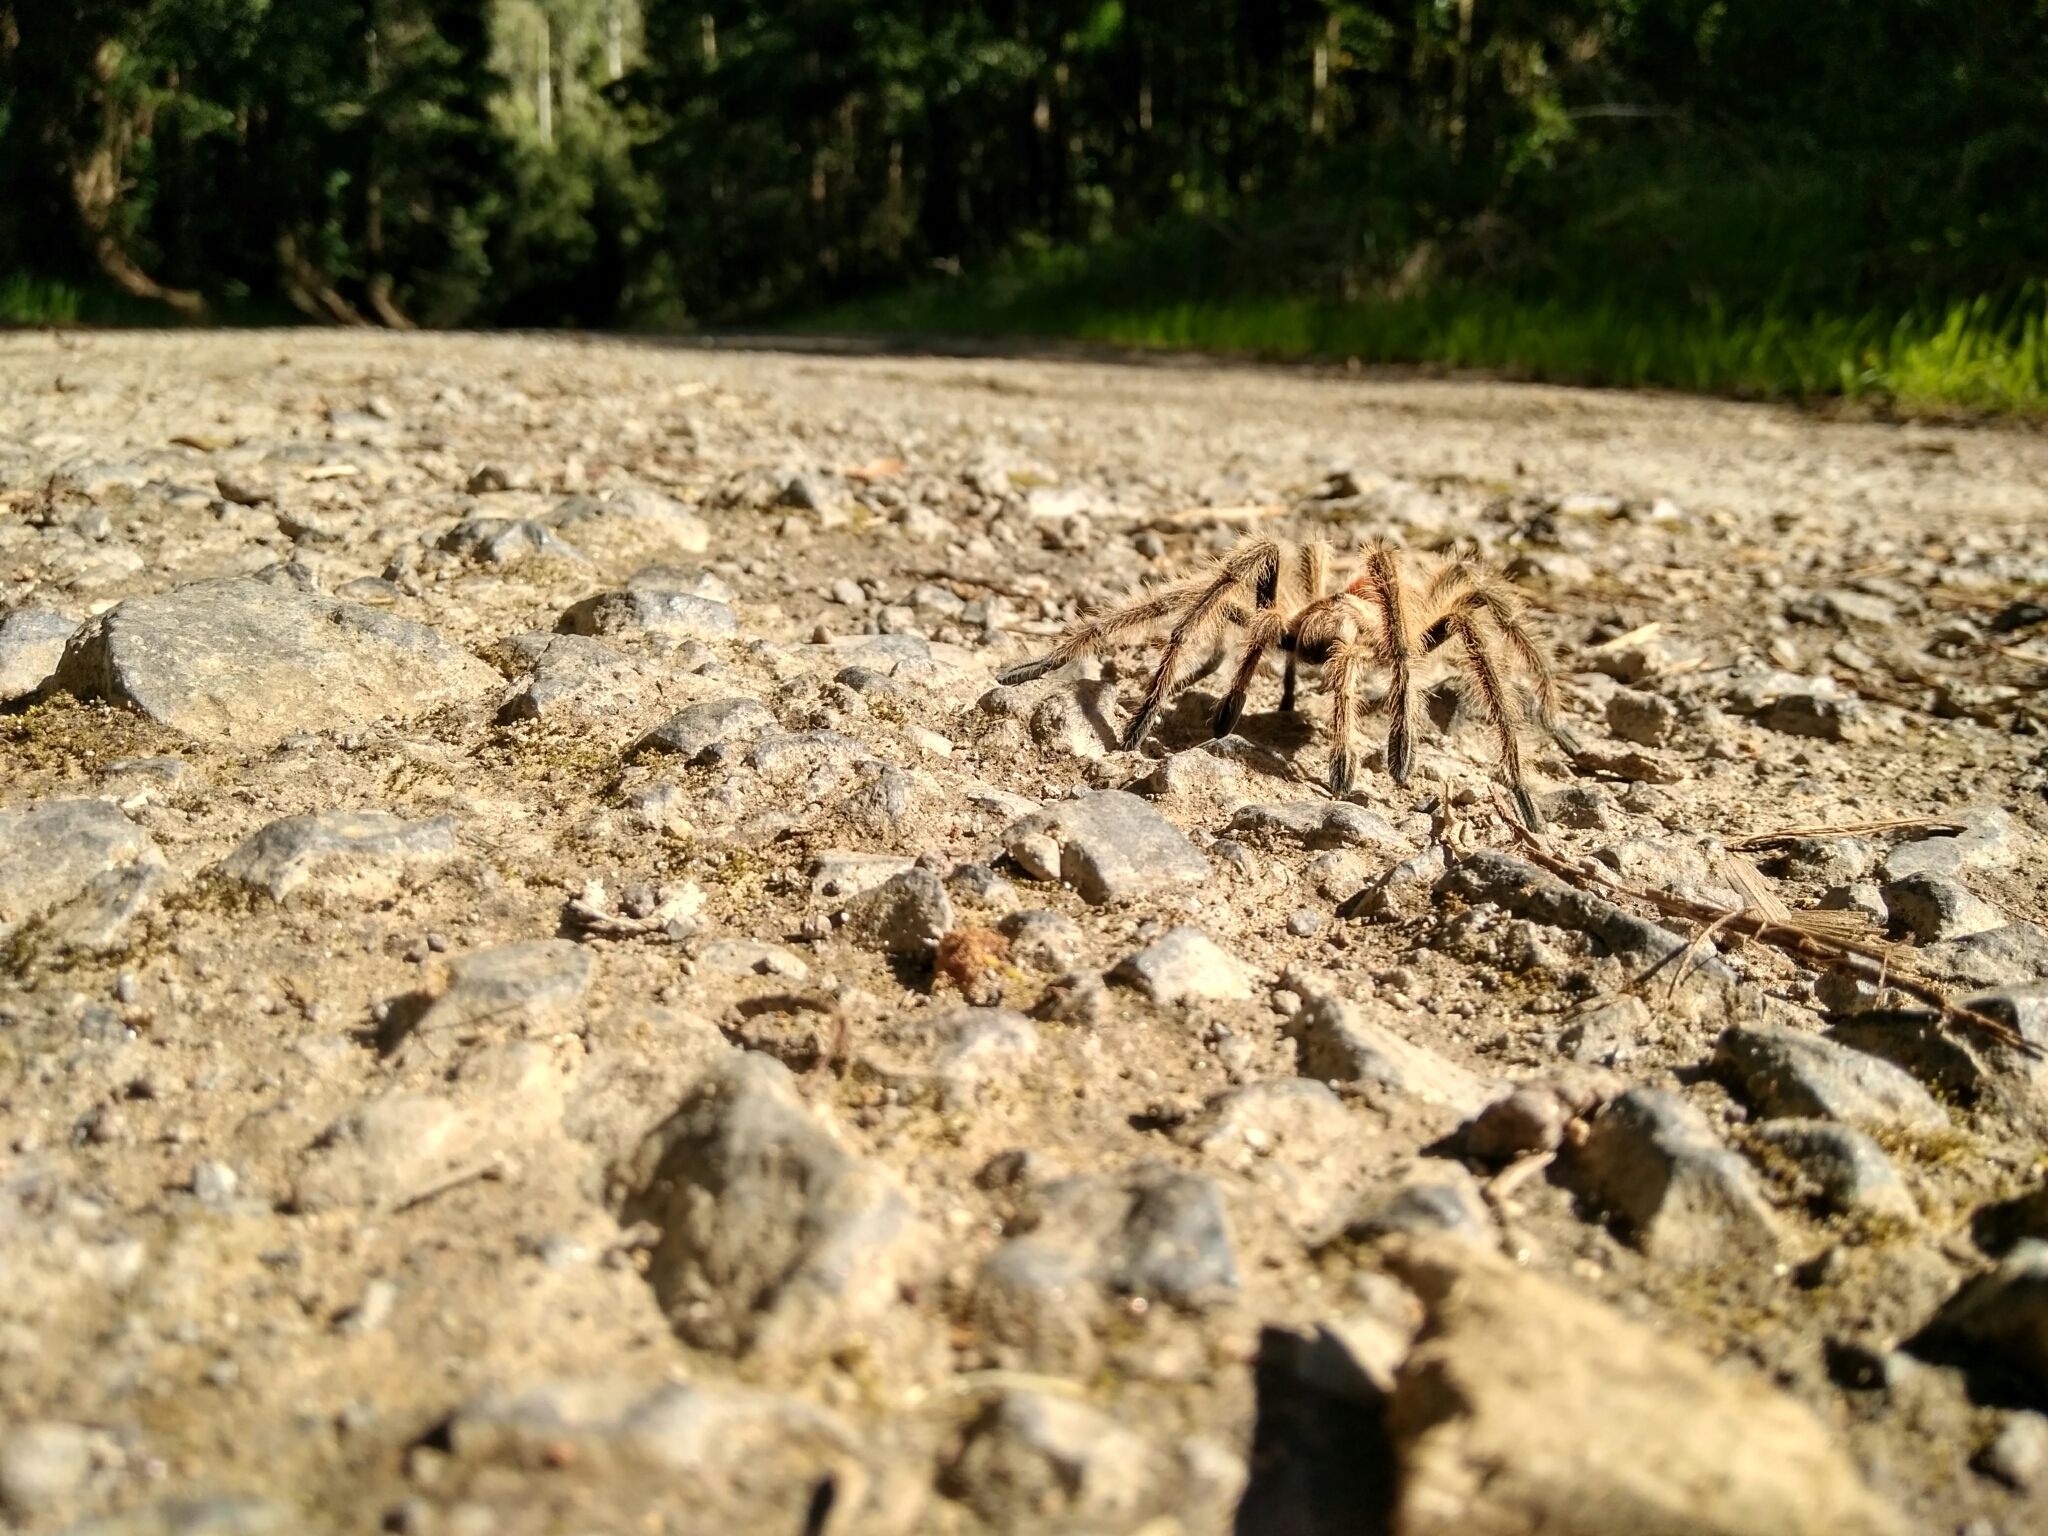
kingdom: Animalia
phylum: Arthropoda
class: Arachnida
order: Araneae
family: Theraphosidae
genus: Phrixotrichus
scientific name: Phrixotrichus vulpinus
